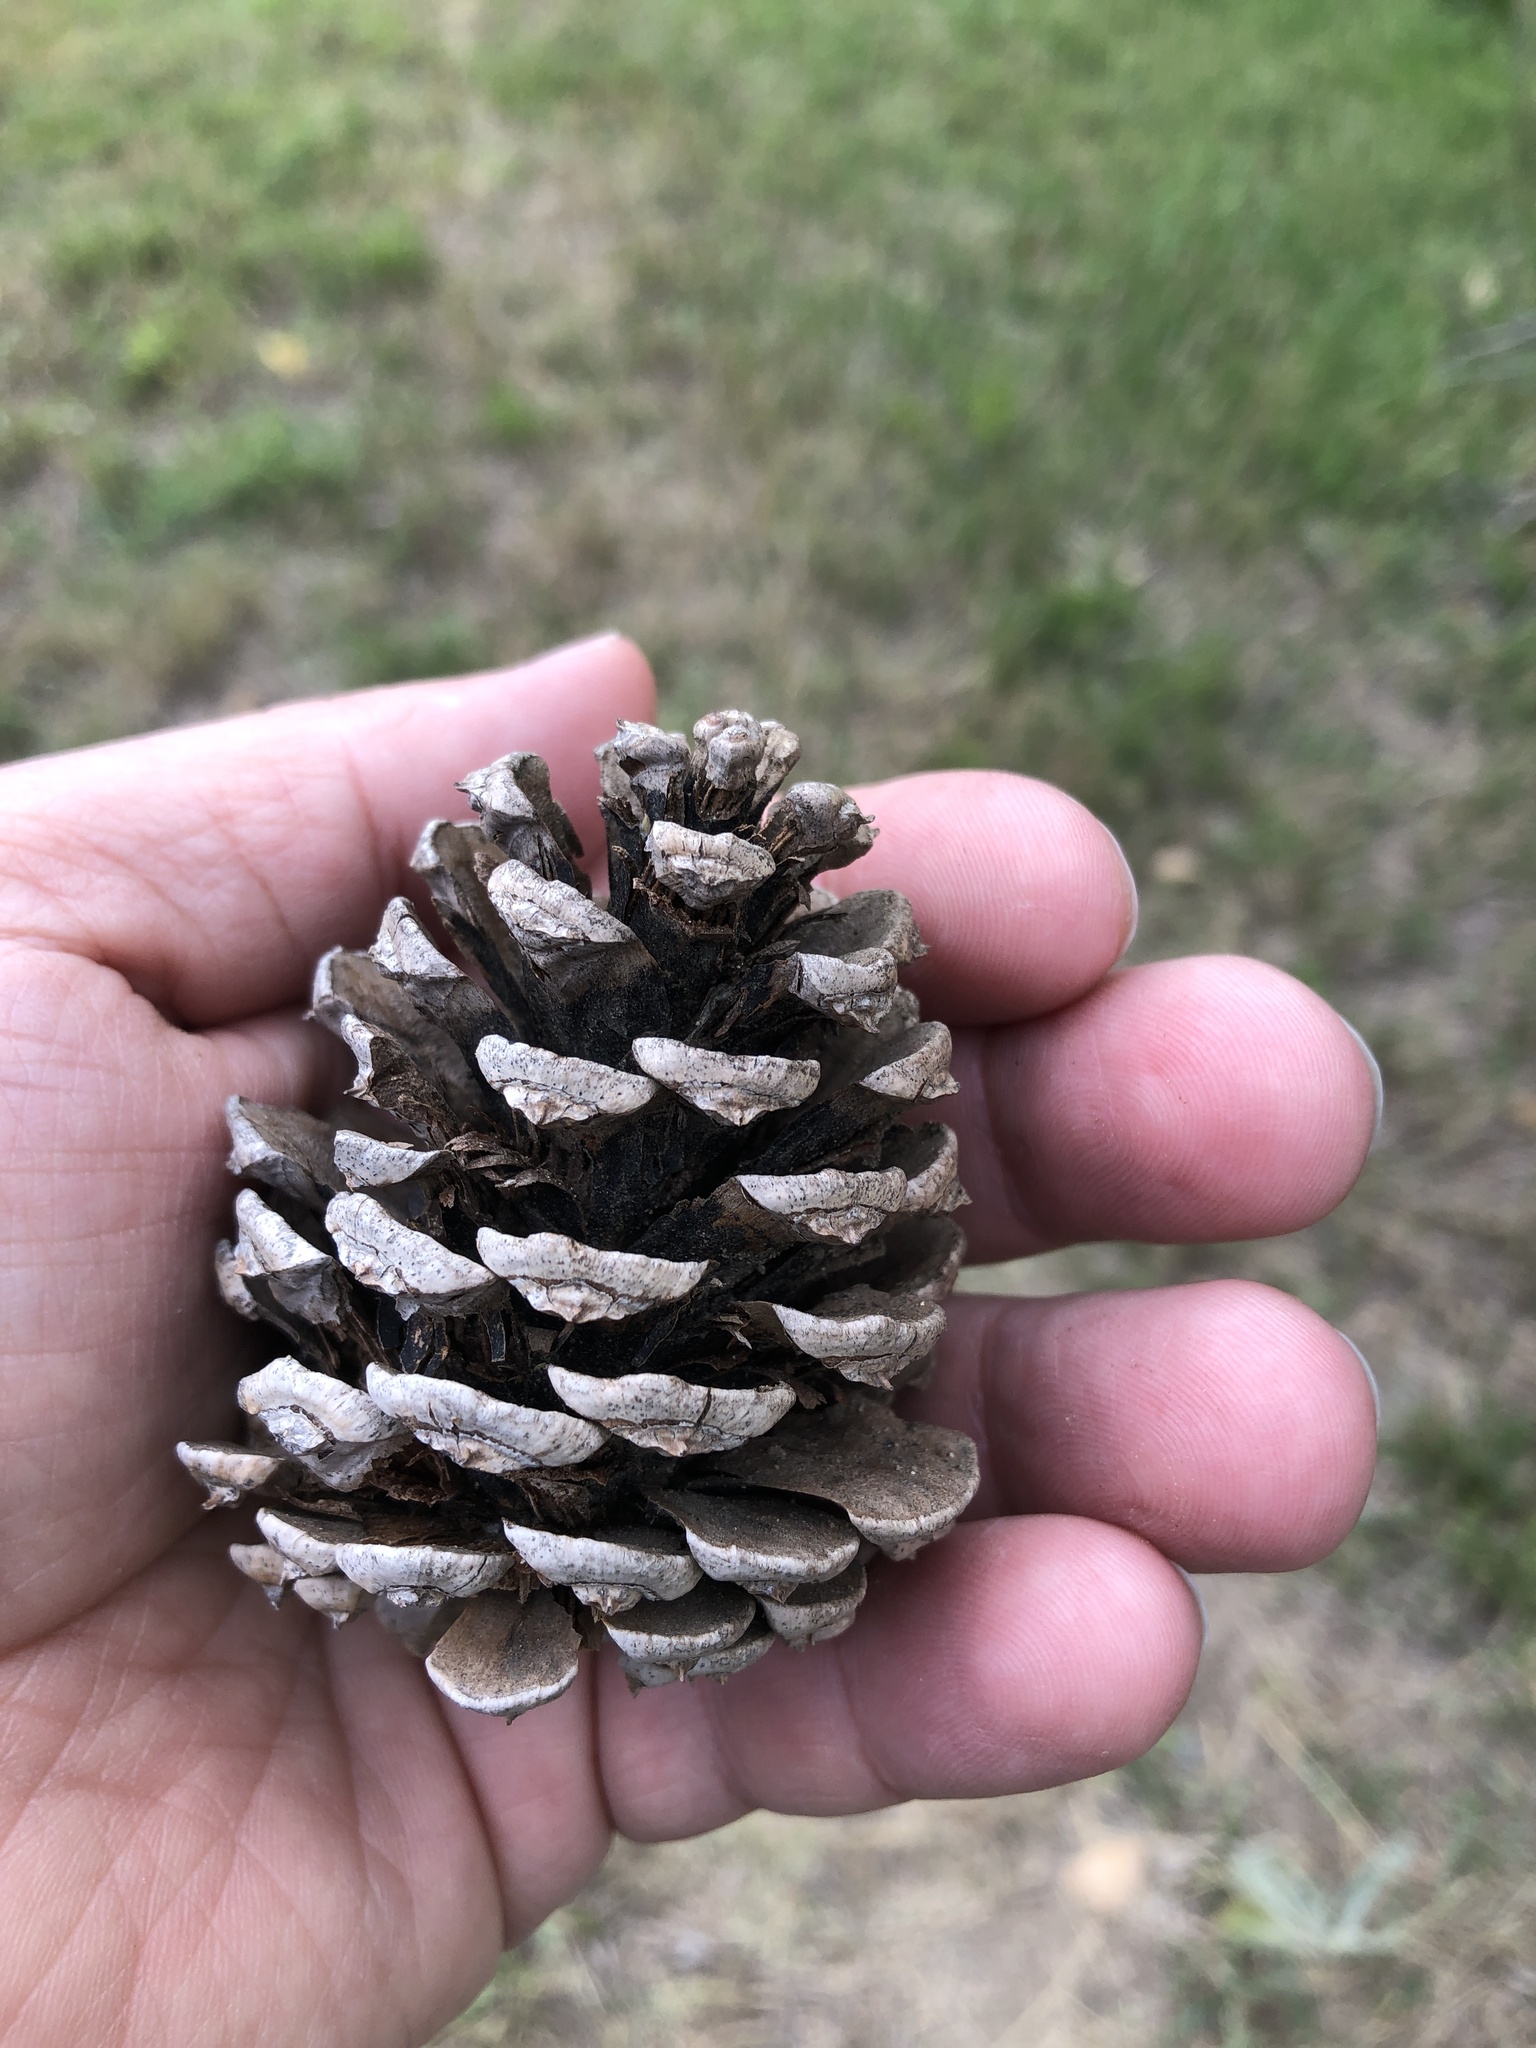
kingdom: Plantae
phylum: Tracheophyta
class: Pinopsida
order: Pinales
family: Pinaceae
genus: Pinus
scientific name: Pinus ponderosa
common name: Western yellow-pine
